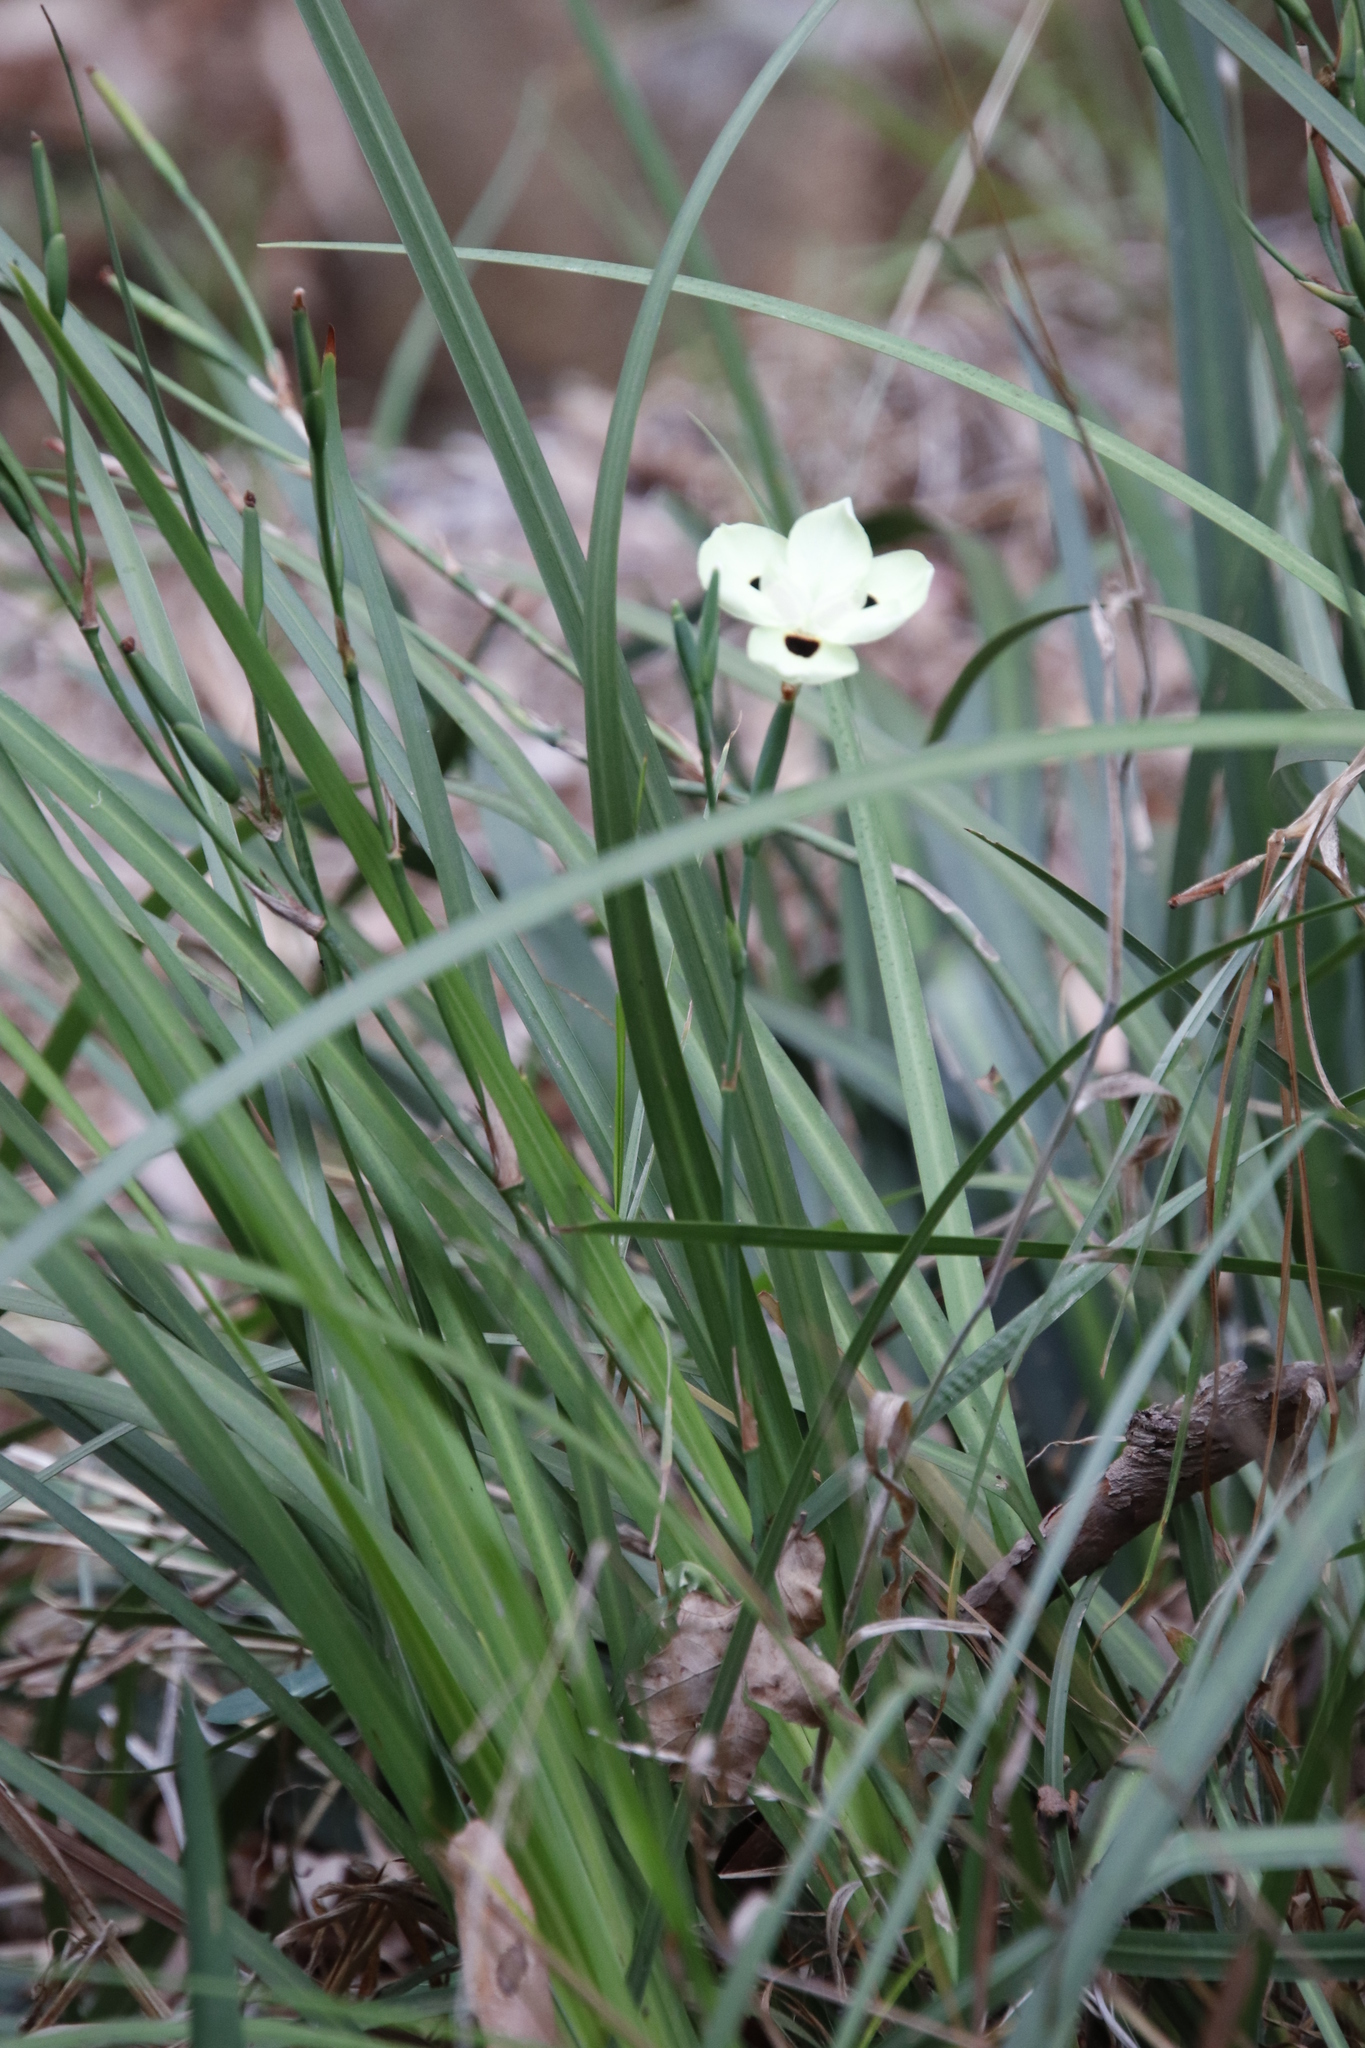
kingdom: Plantae
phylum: Tracheophyta
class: Liliopsida
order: Asparagales
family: Iridaceae
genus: Dietes
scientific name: Dietes bicolor
